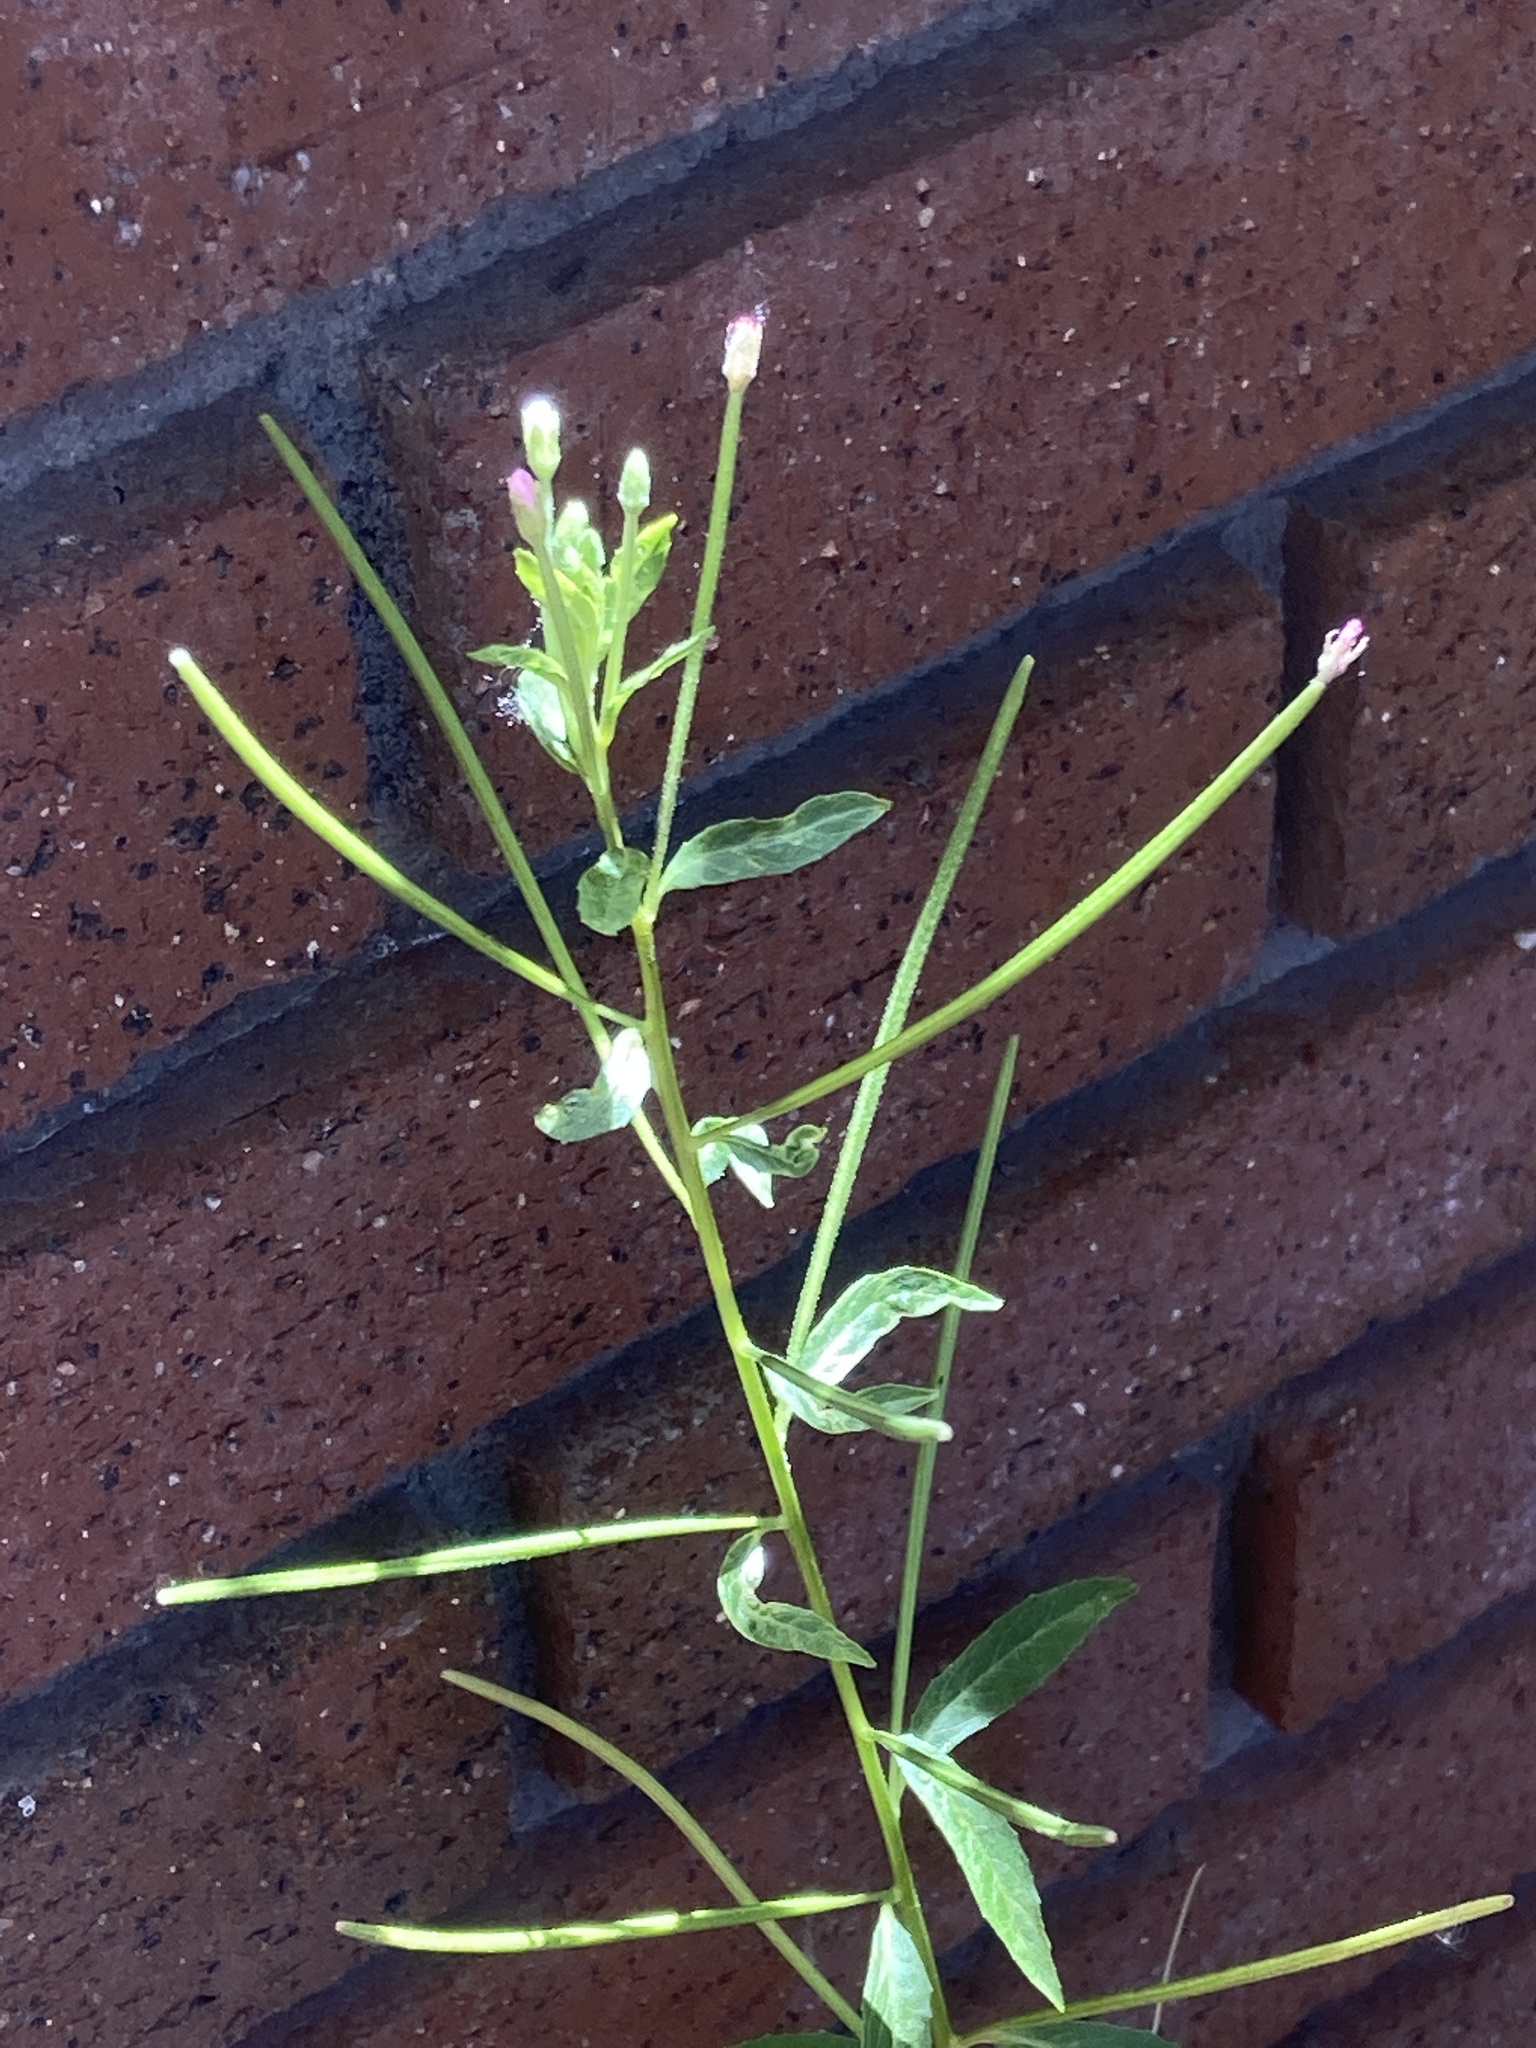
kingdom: Plantae
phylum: Tracheophyta
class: Magnoliopsida
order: Myrtales
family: Onagraceae
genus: Epilobium
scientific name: Epilobium ciliatum
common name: American willowherb
